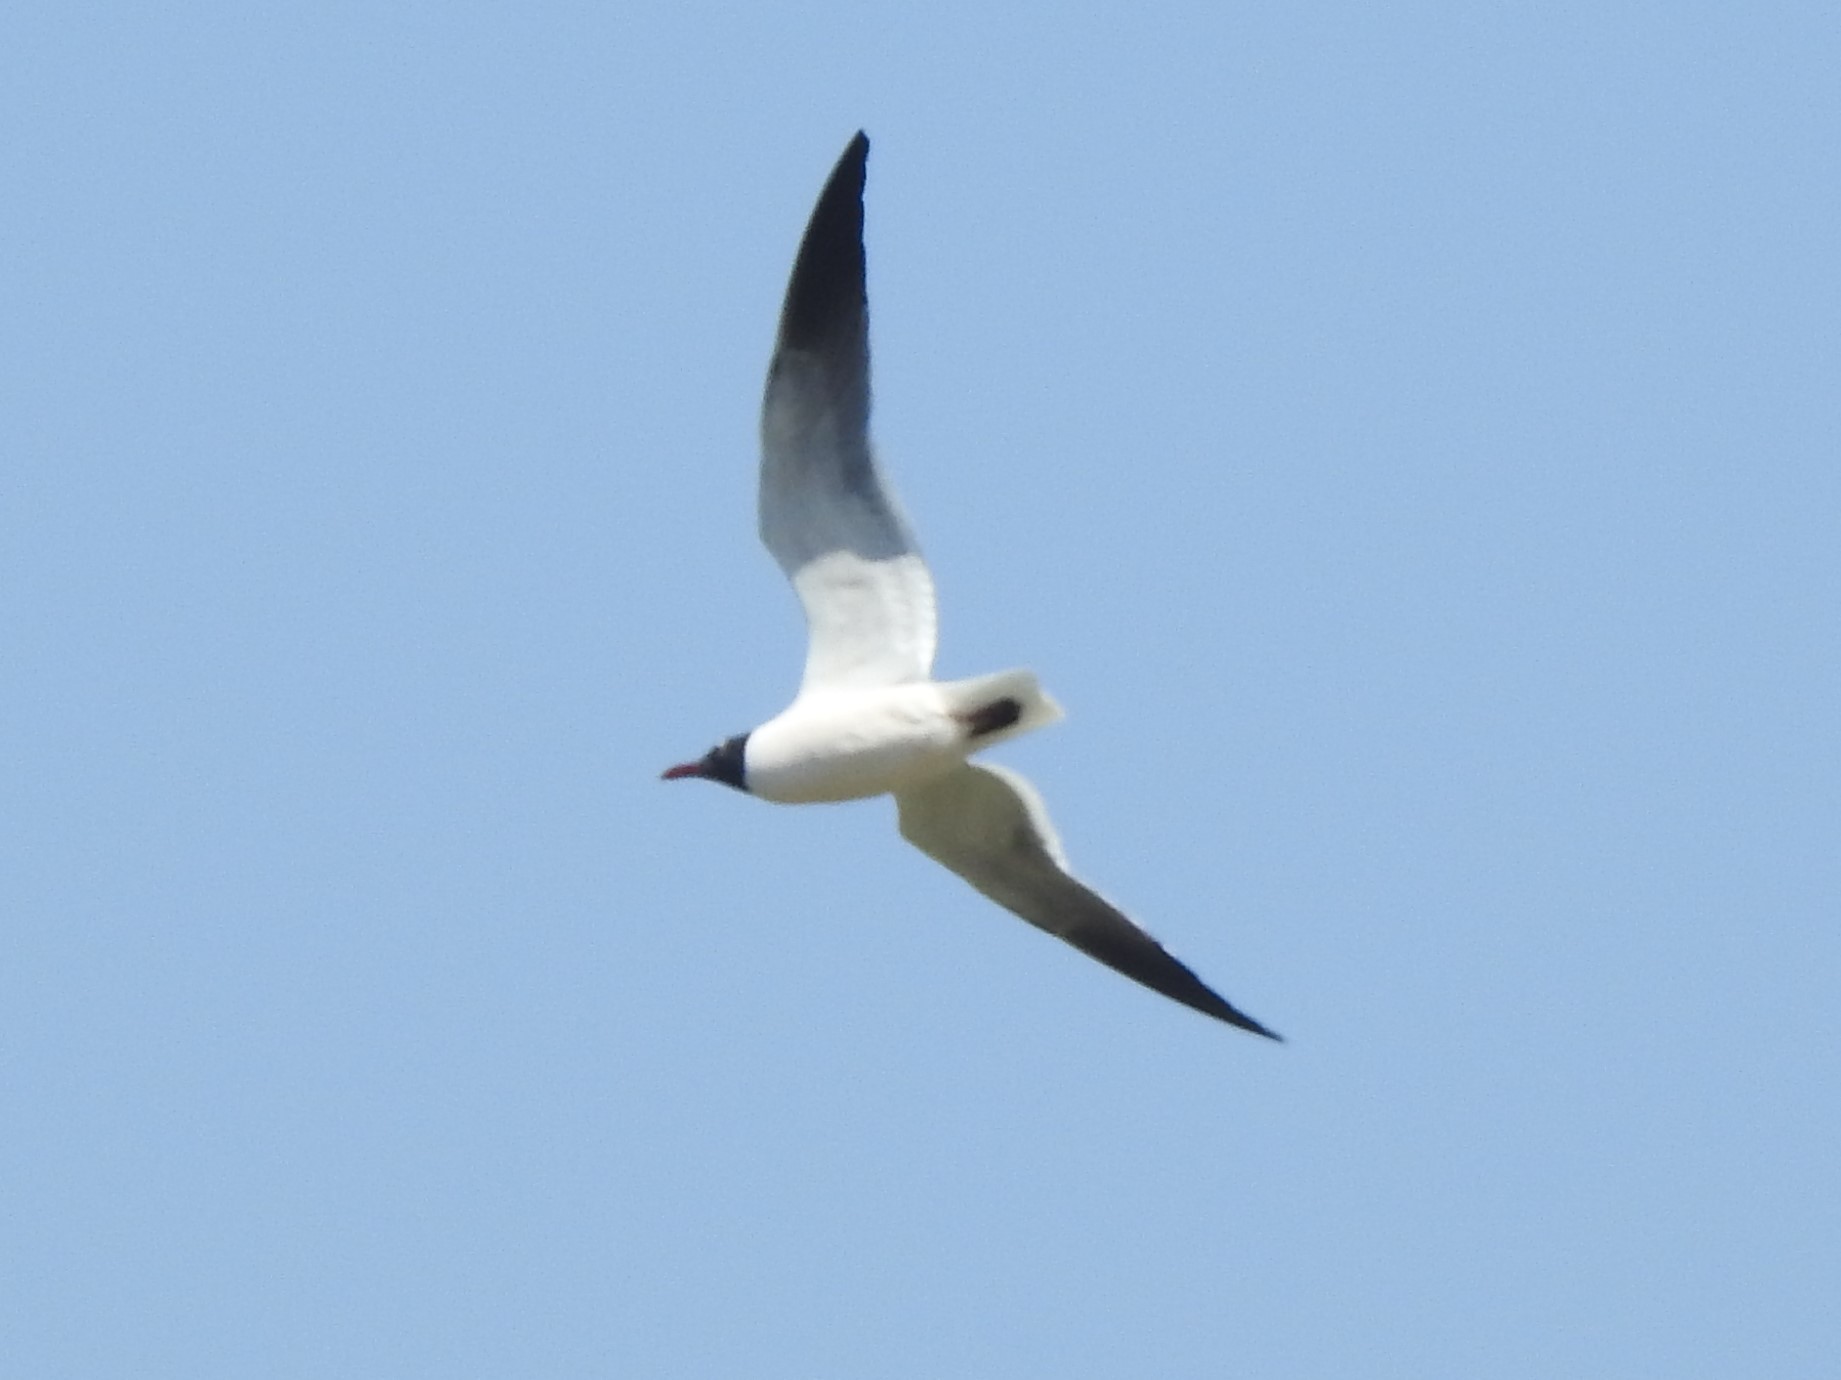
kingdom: Animalia
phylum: Chordata
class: Aves
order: Charadriiformes
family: Laridae
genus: Leucophaeus
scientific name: Leucophaeus atricilla
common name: Laughing gull
